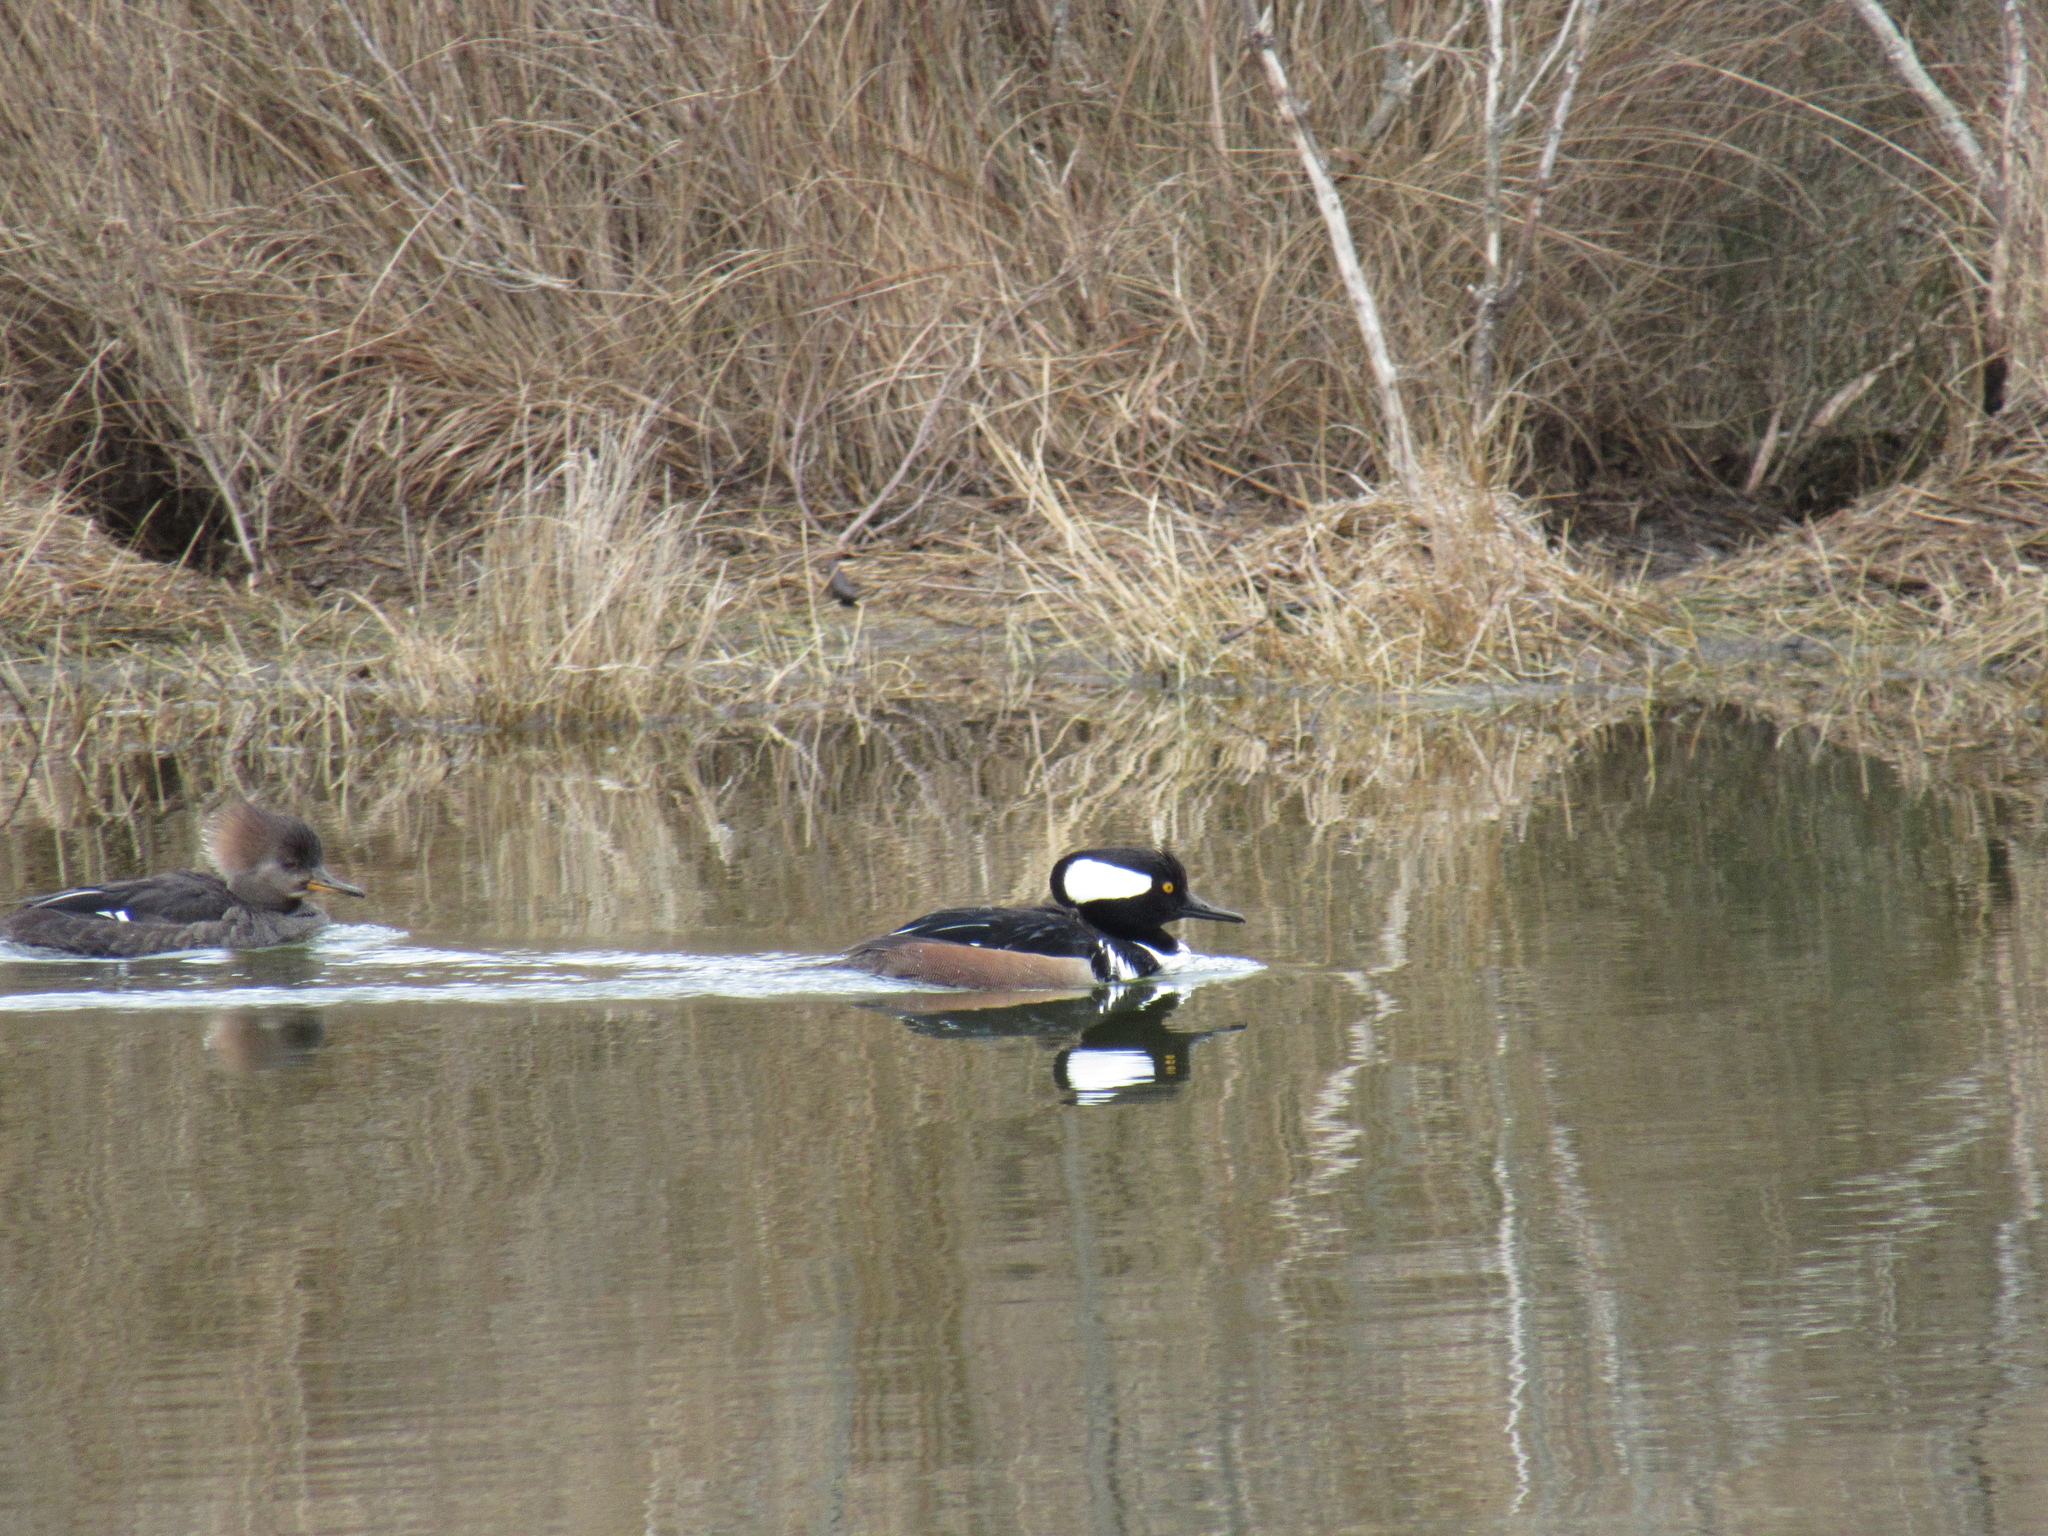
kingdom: Animalia
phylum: Chordata
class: Aves
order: Anseriformes
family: Anatidae
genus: Lophodytes
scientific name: Lophodytes cucullatus
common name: Hooded merganser
